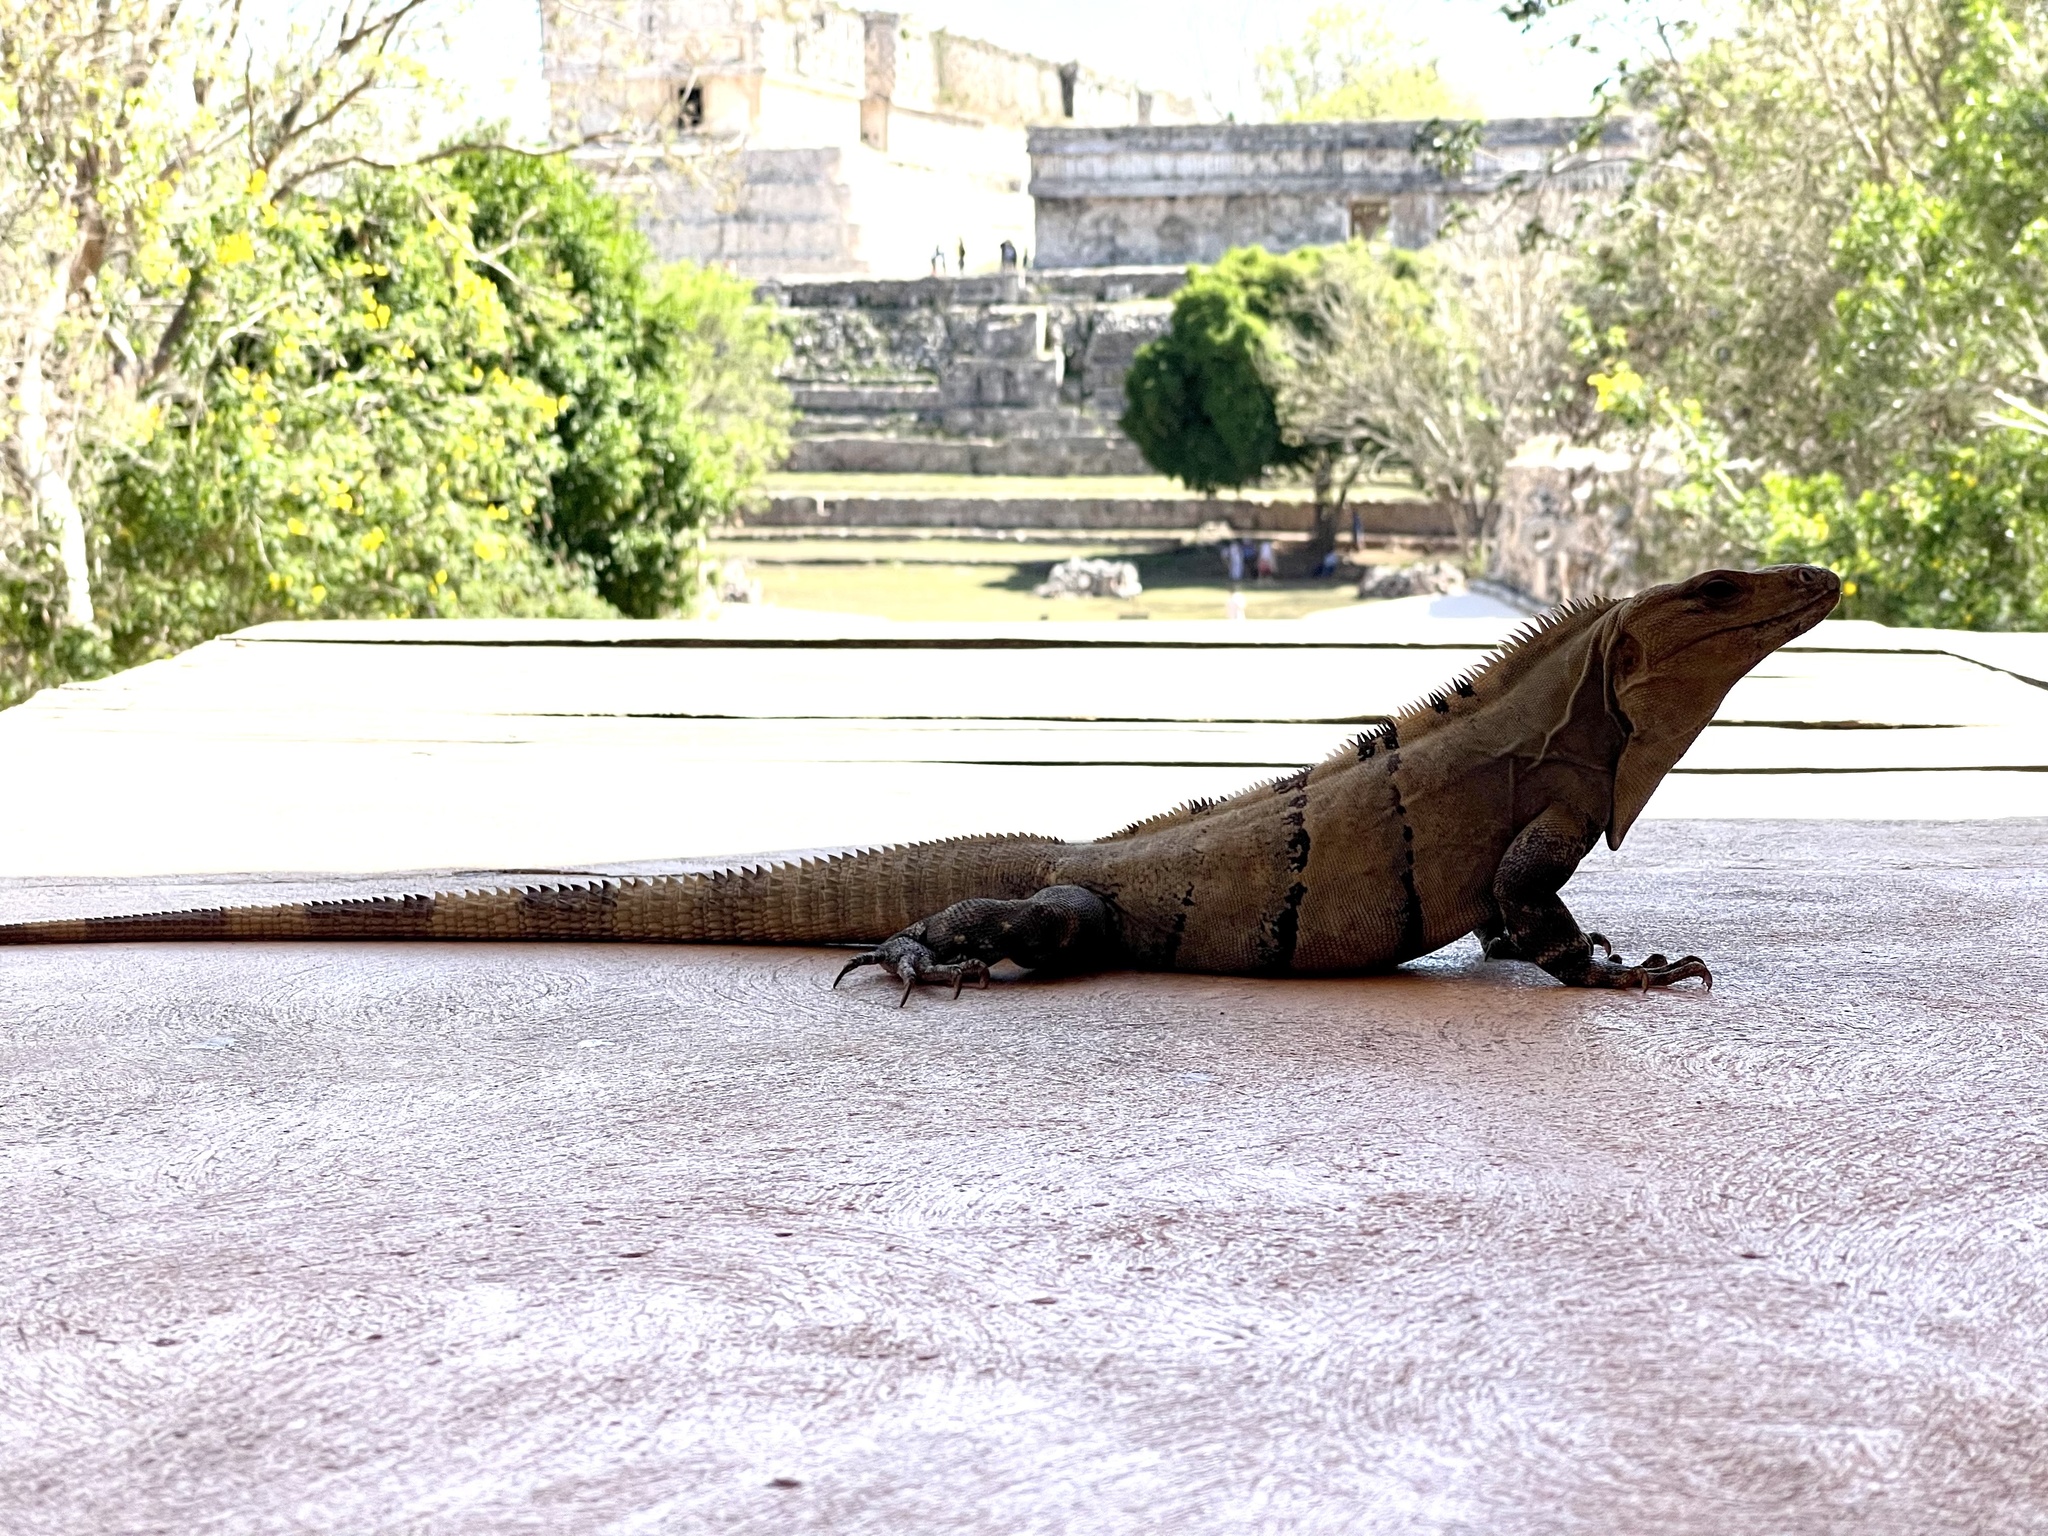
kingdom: Animalia
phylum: Chordata
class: Squamata
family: Iguanidae
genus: Ctenosaura
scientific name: Ctenosaura similis
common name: Black spiny-tailed iguana
